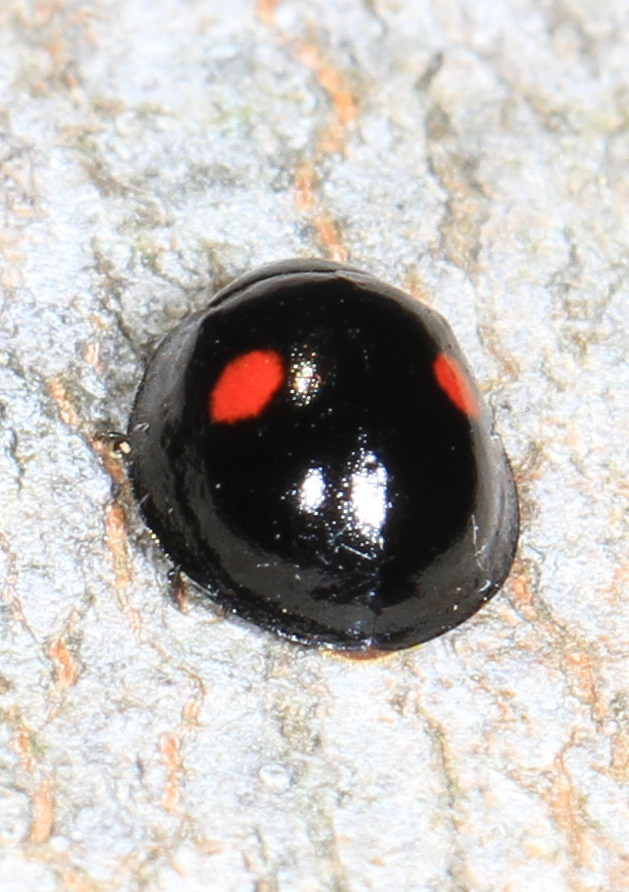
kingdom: Animalia
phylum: Arthropoda
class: Insecta
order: Coleoptera
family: Coccinellidae
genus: Chilocorus
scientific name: Chilocorus stigma
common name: Twicestabbed lady beetle
